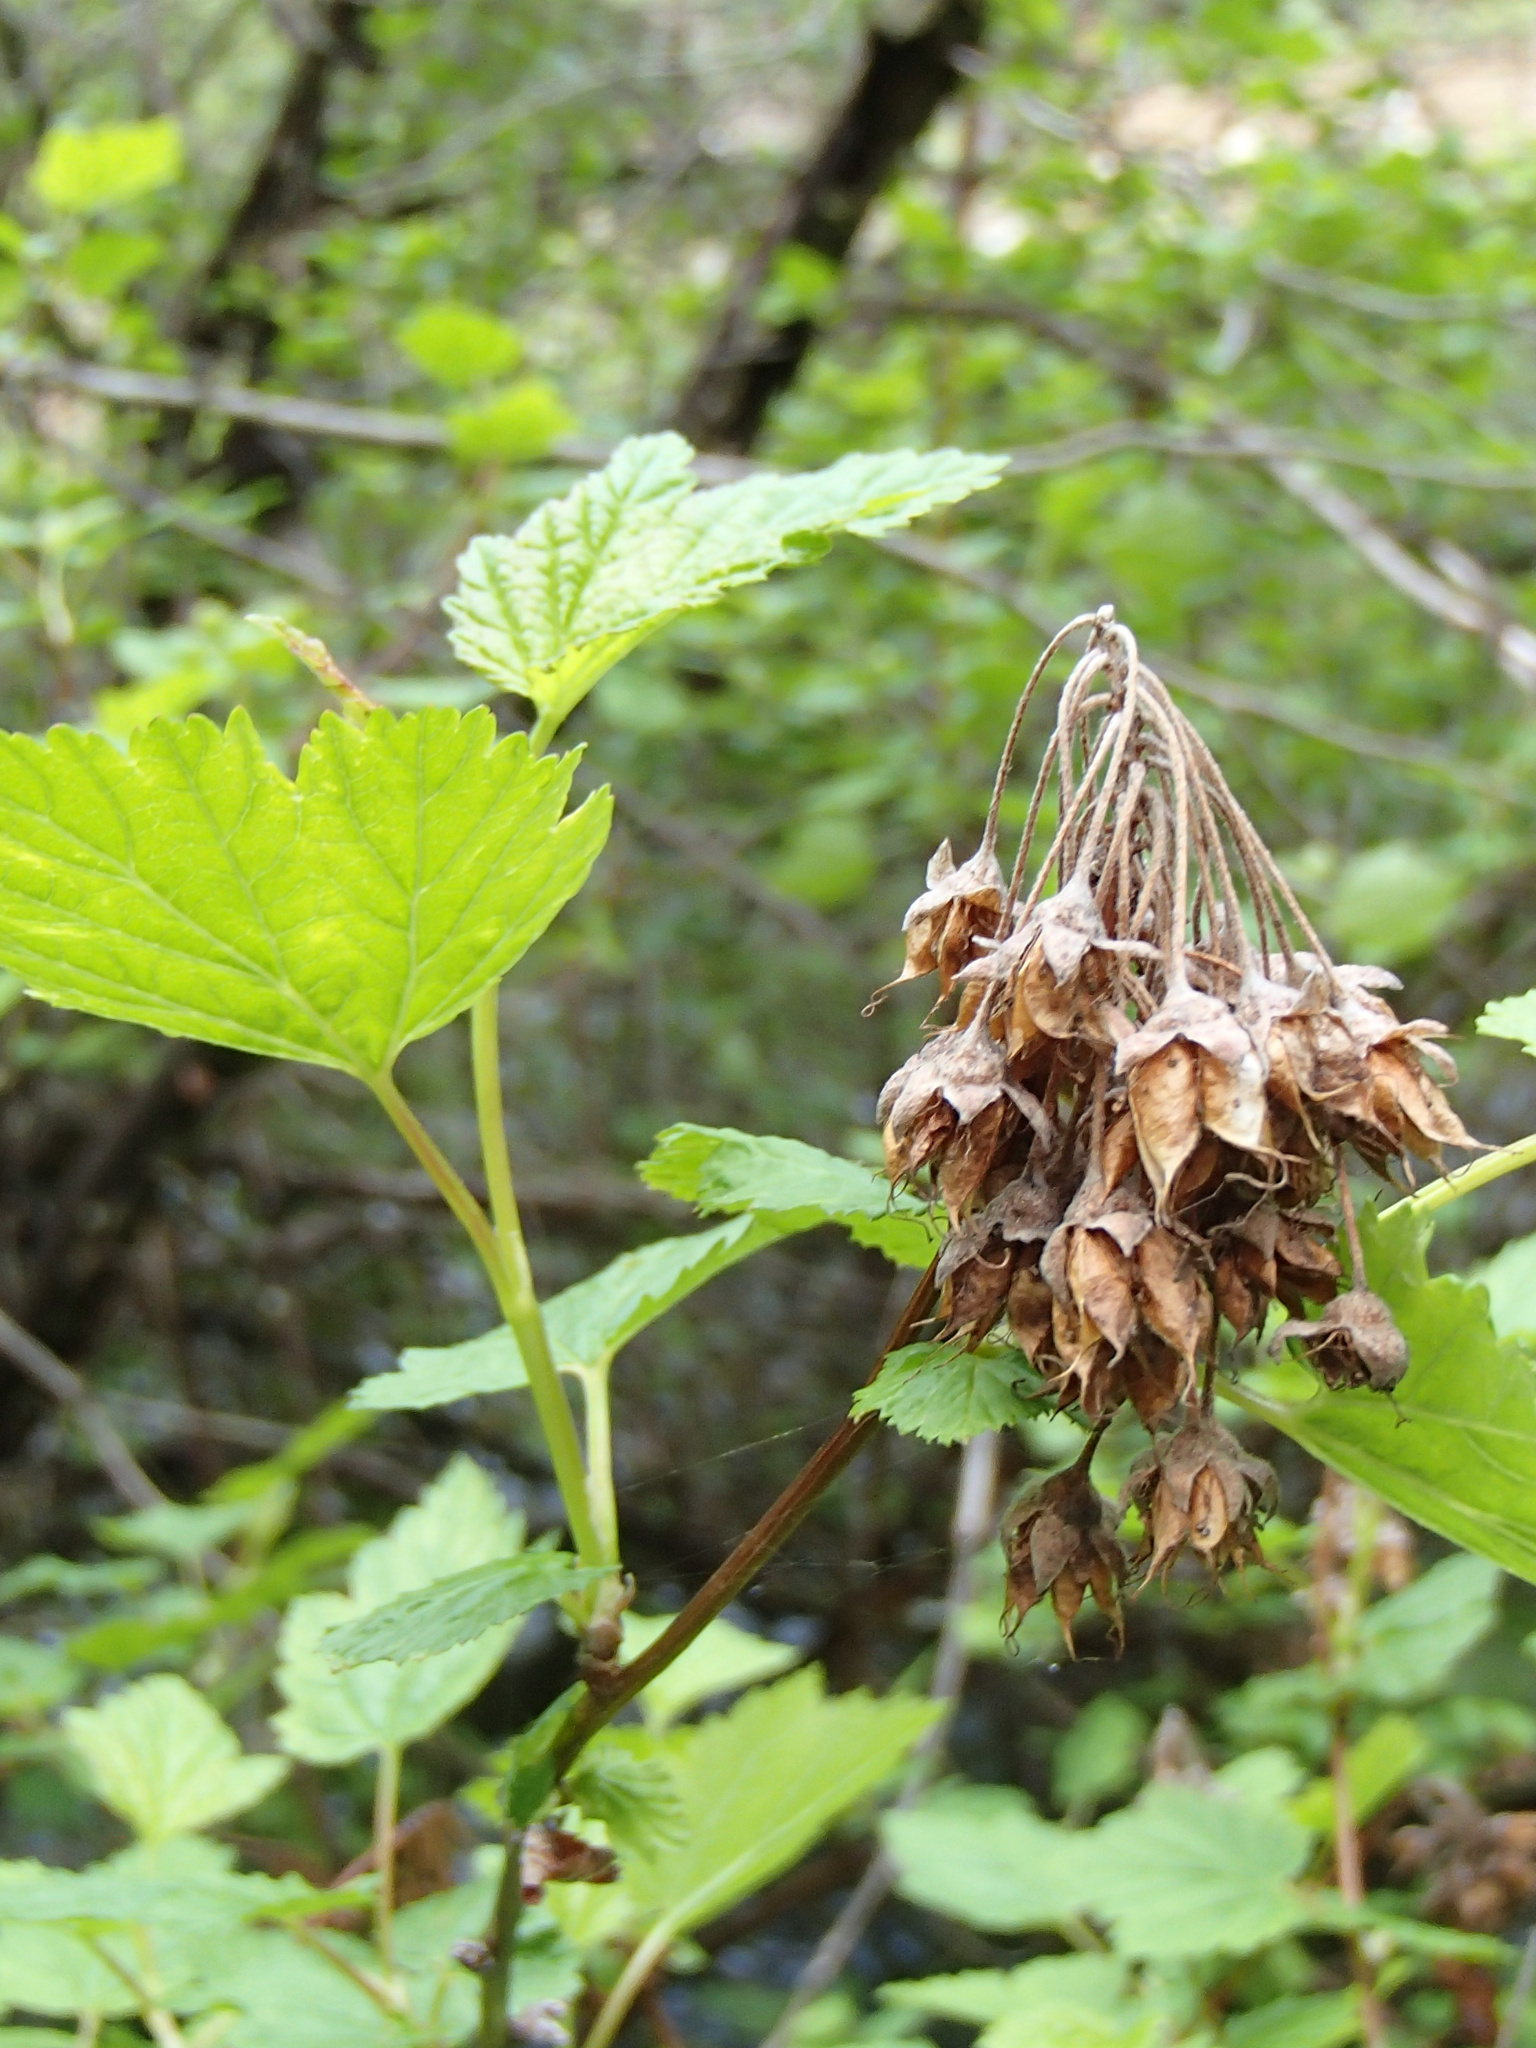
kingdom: Plantae
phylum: Tracheophyta
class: Magnoliopsida
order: Rosales
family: Rosaceae
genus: Physocarpus
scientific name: Physocarpus capitatus
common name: Pacific ninebark
